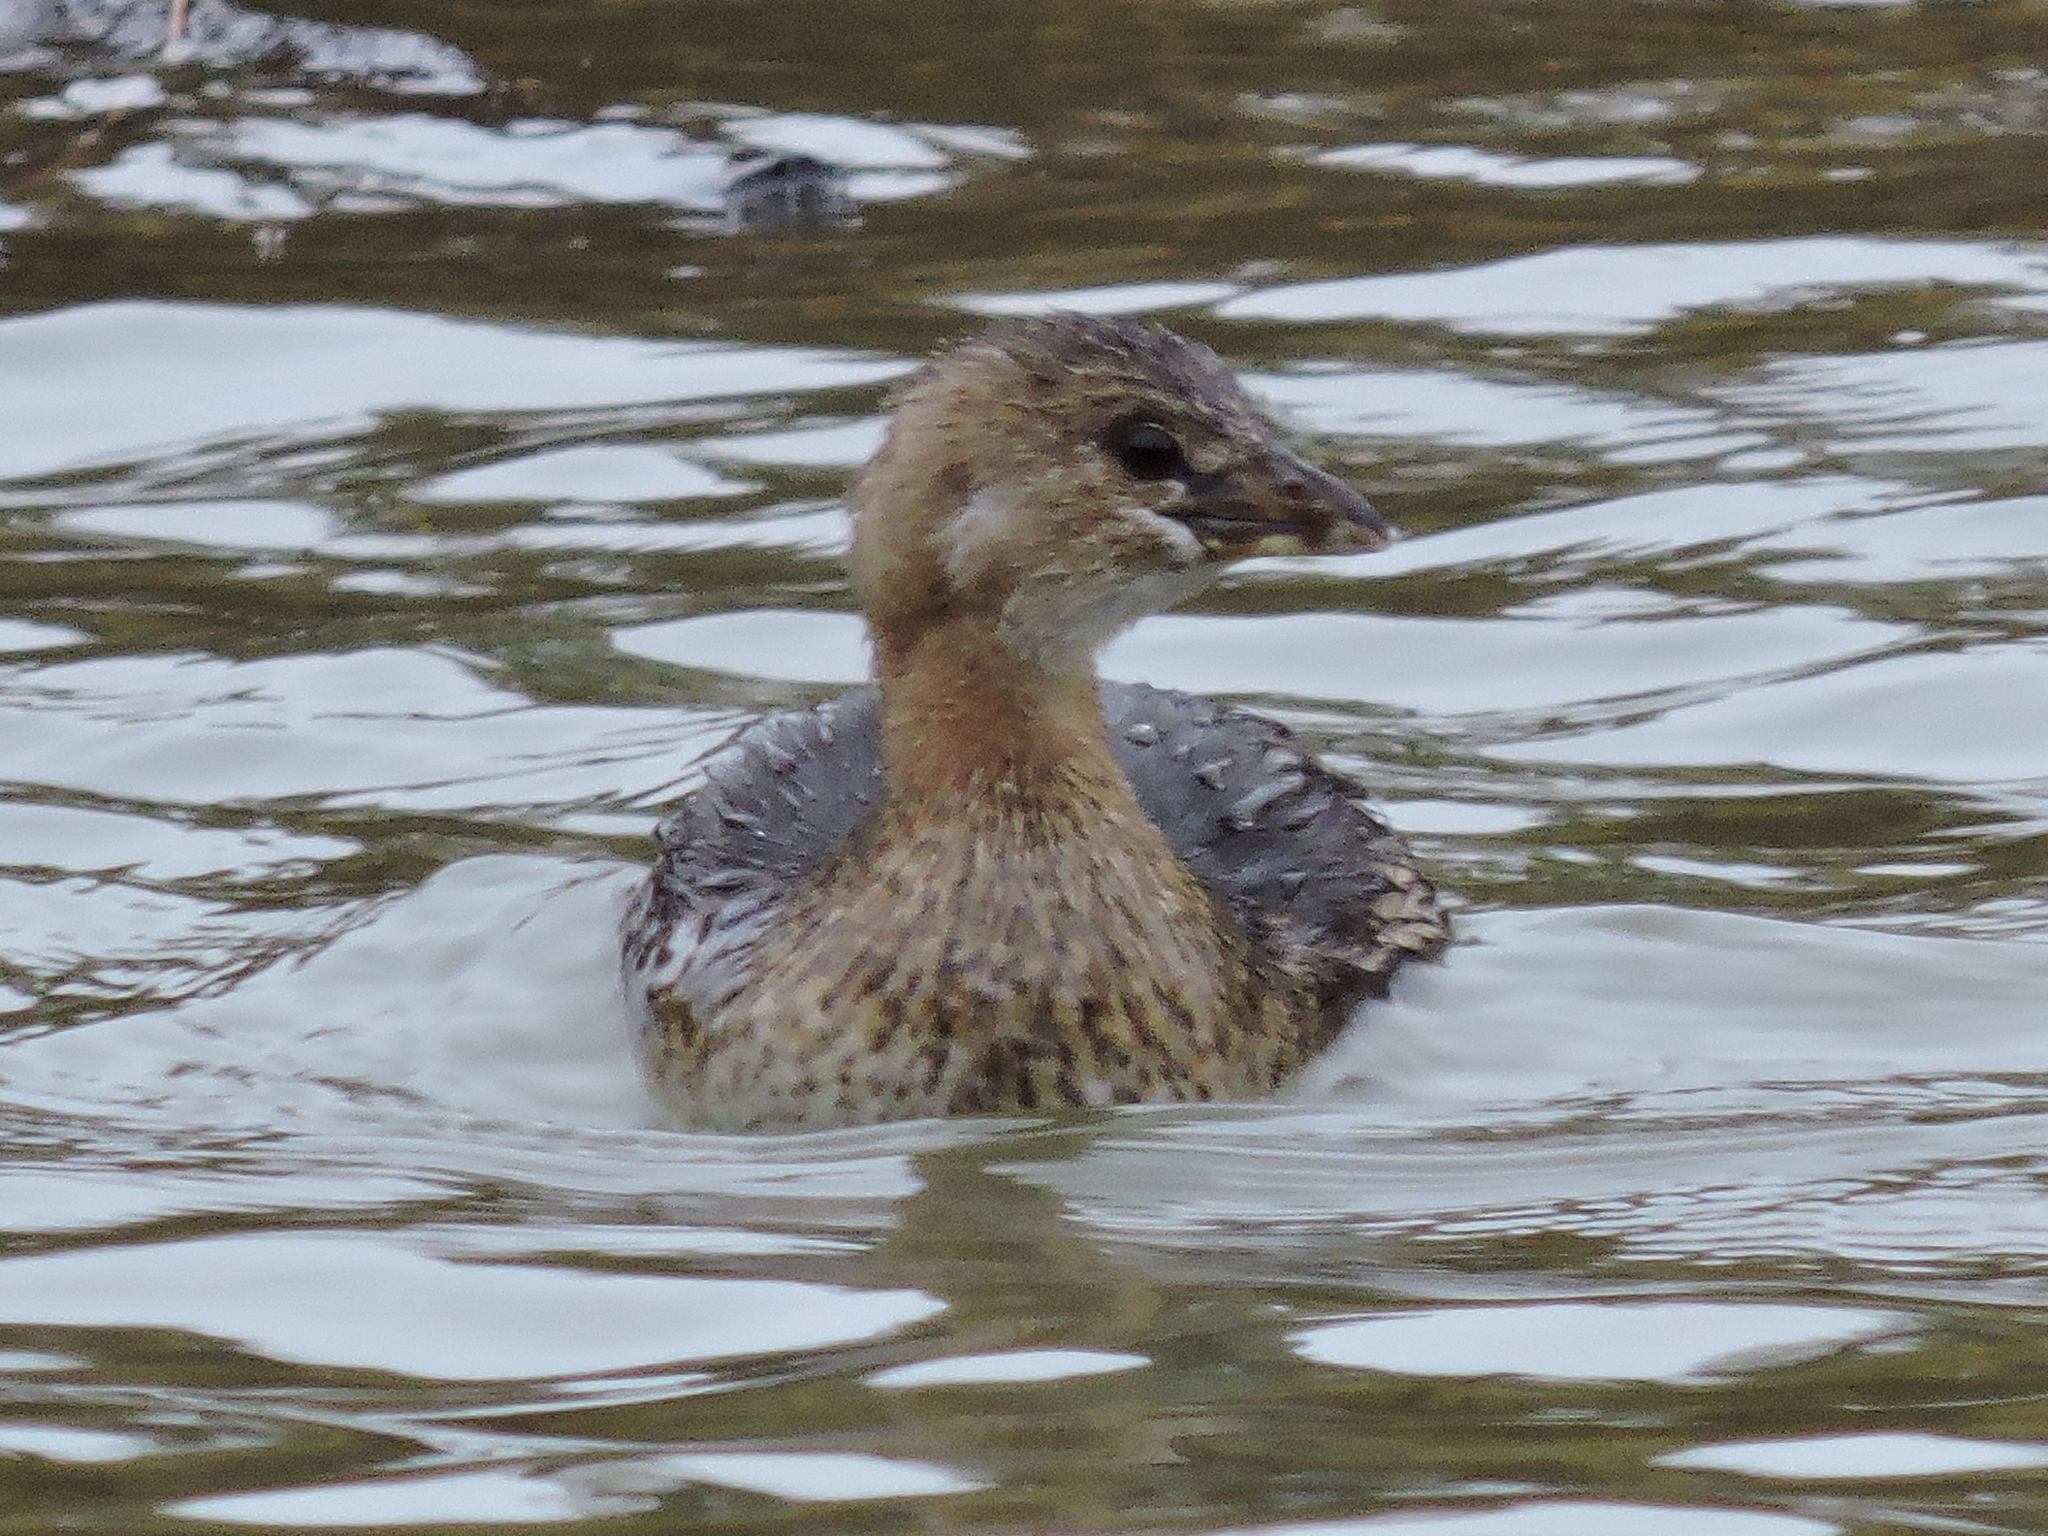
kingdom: Animalia
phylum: Chordata
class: Aves
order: Podicipediformes
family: Podicipedidae
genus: Podilymbus
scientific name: Podilymbus podiceps
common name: Pied-billed grebe
